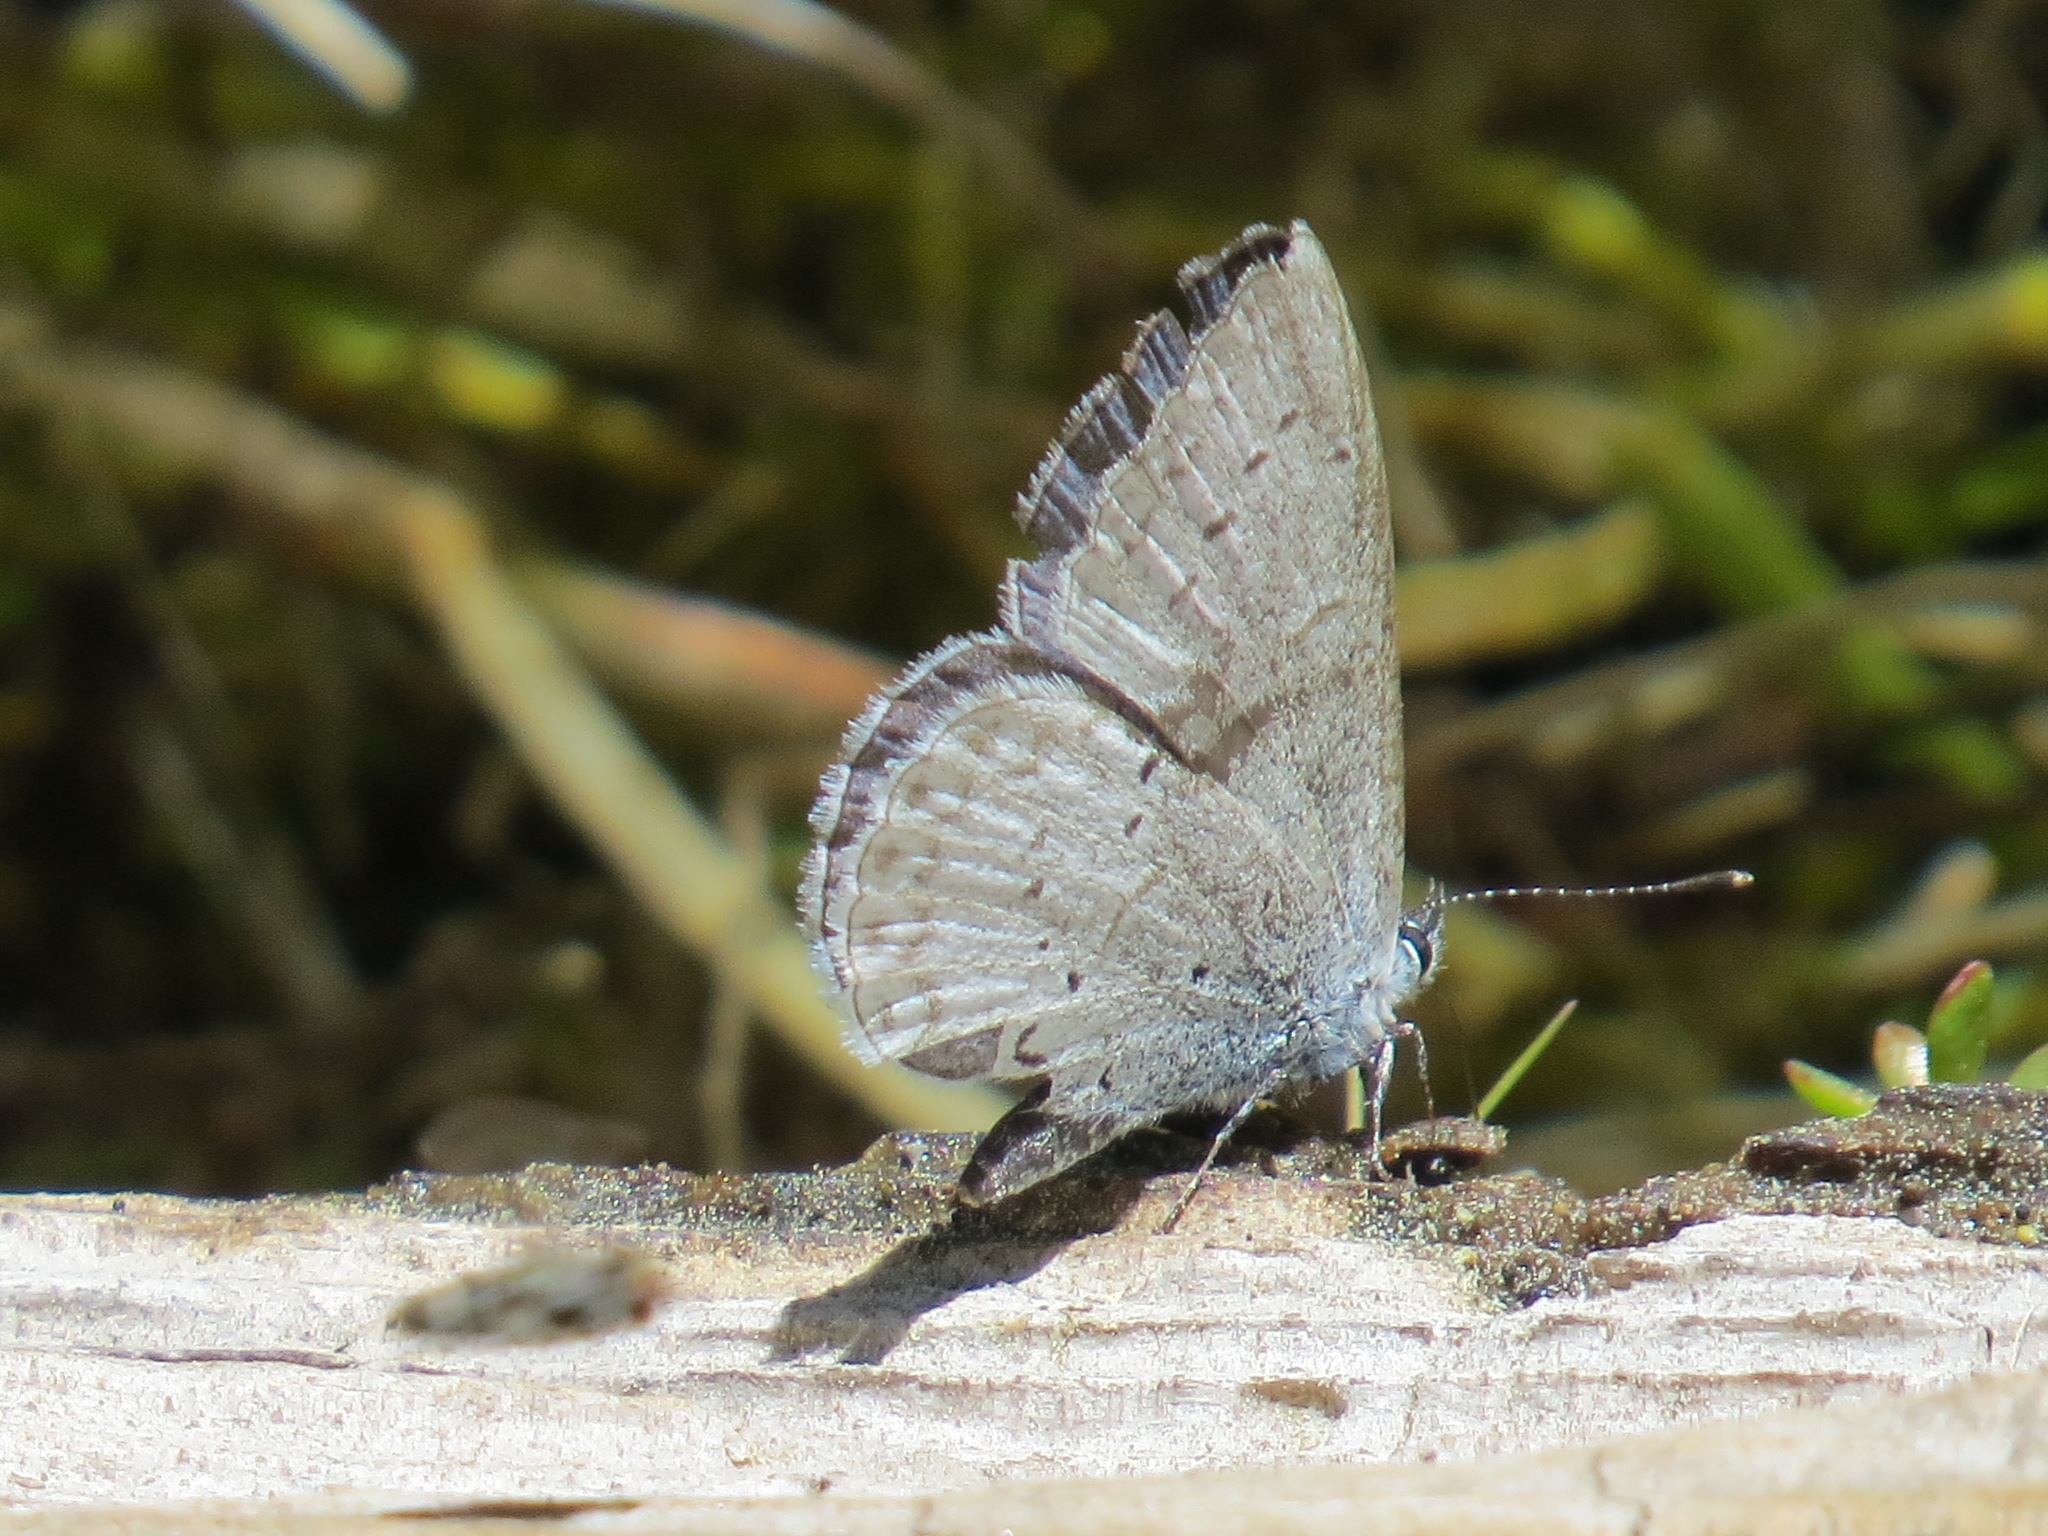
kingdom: Animalia
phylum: Arthropoda
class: Insecta
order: Lepidoptera
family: Lycaenidae
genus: Celastrina
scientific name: Celastrina ladon
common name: Spring azure
